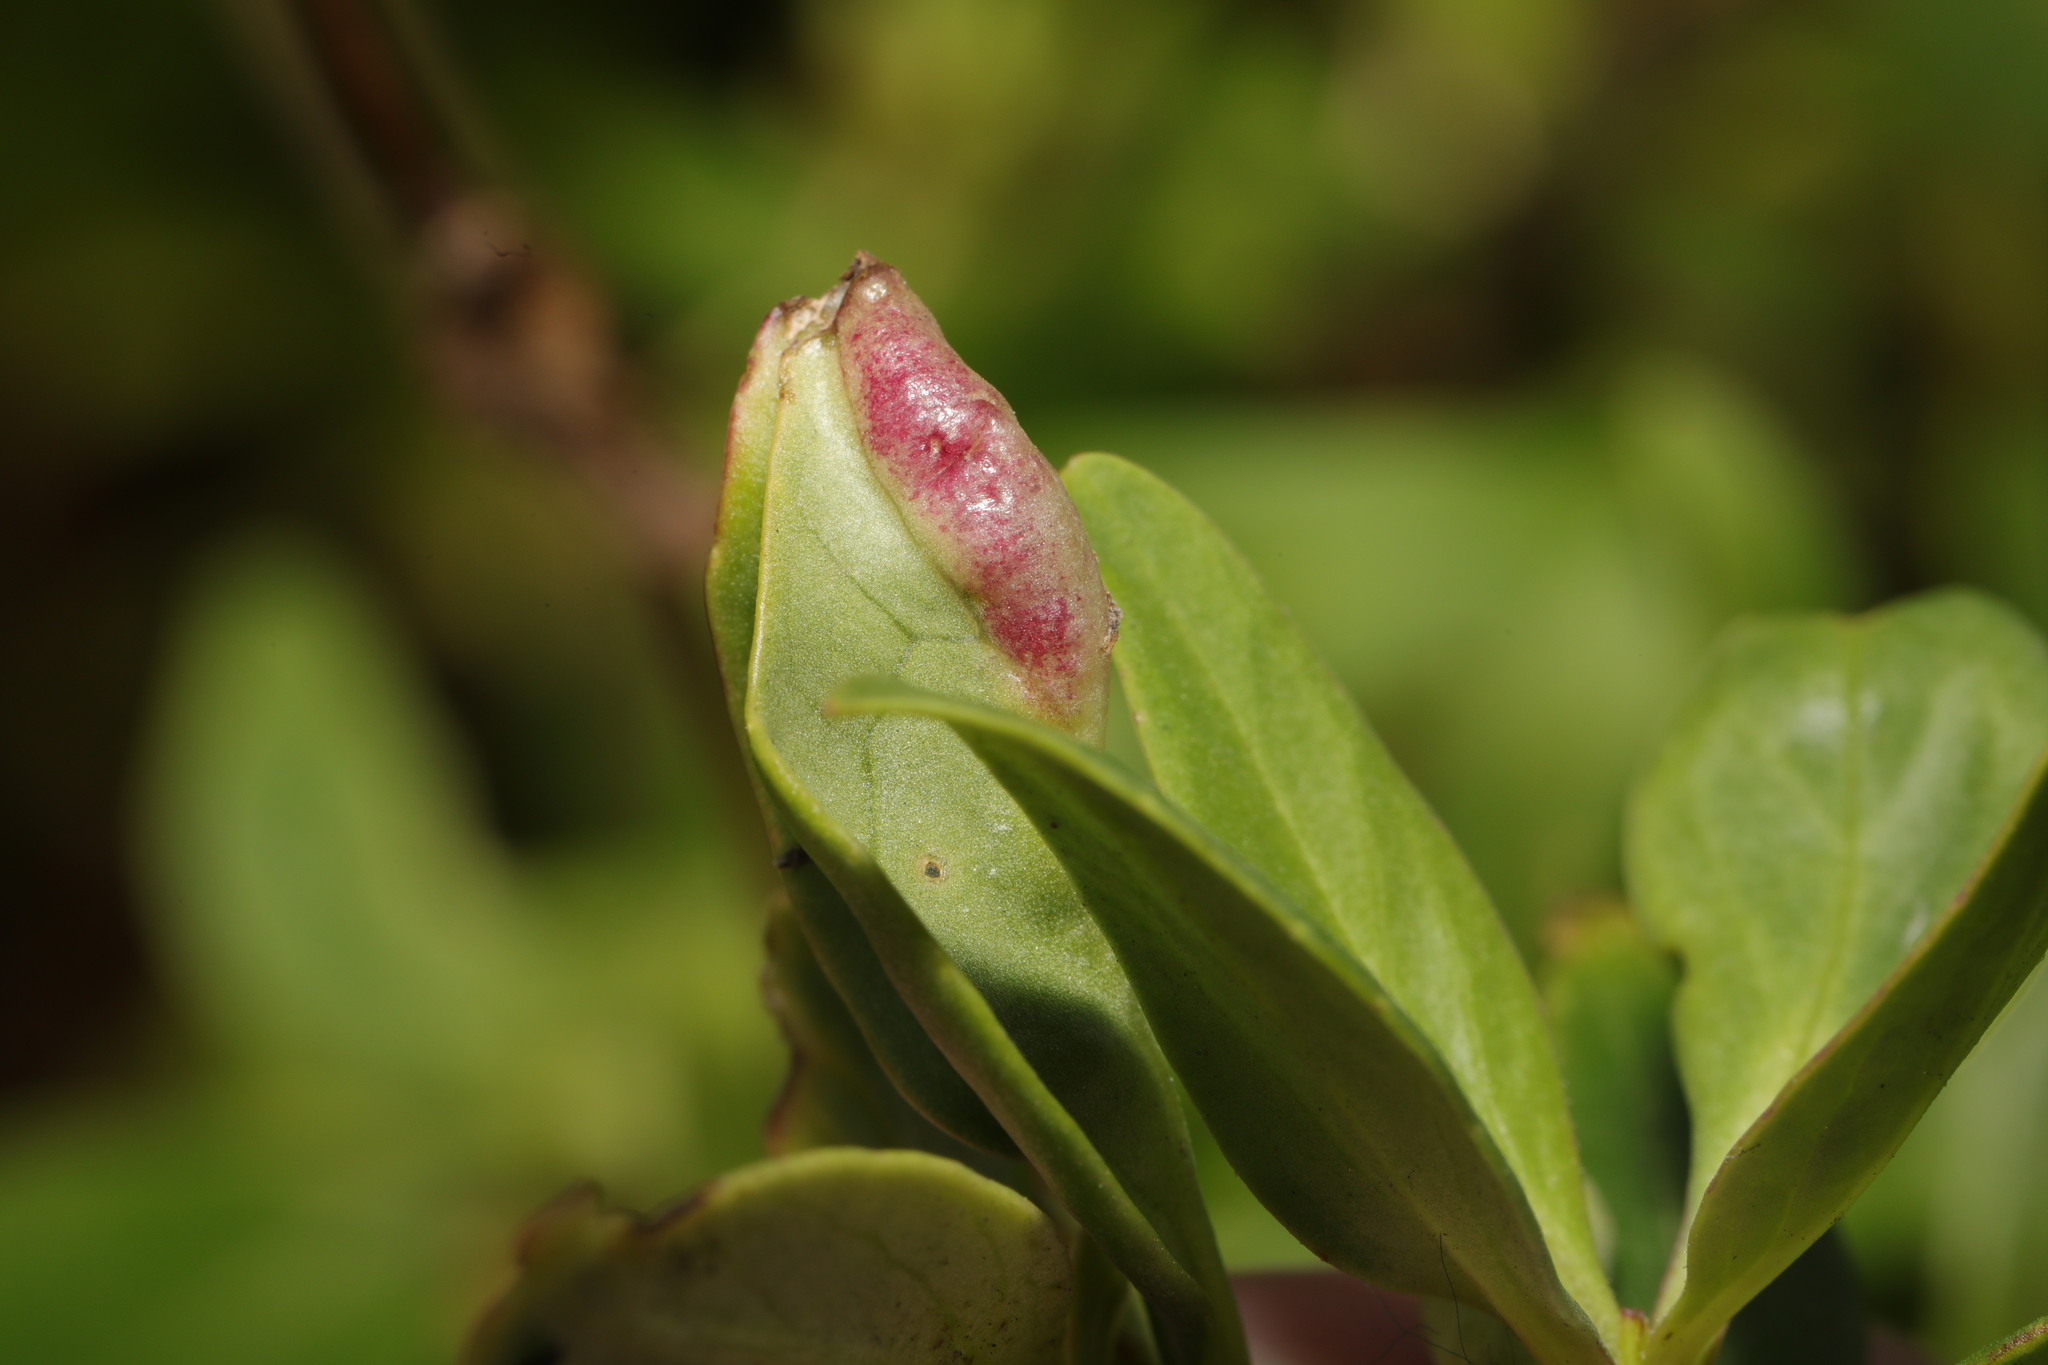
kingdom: Animalia
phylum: Arthropoda
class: Insecta
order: Hemiptera
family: Triozidae
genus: Trioza
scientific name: Trioza centranthi
